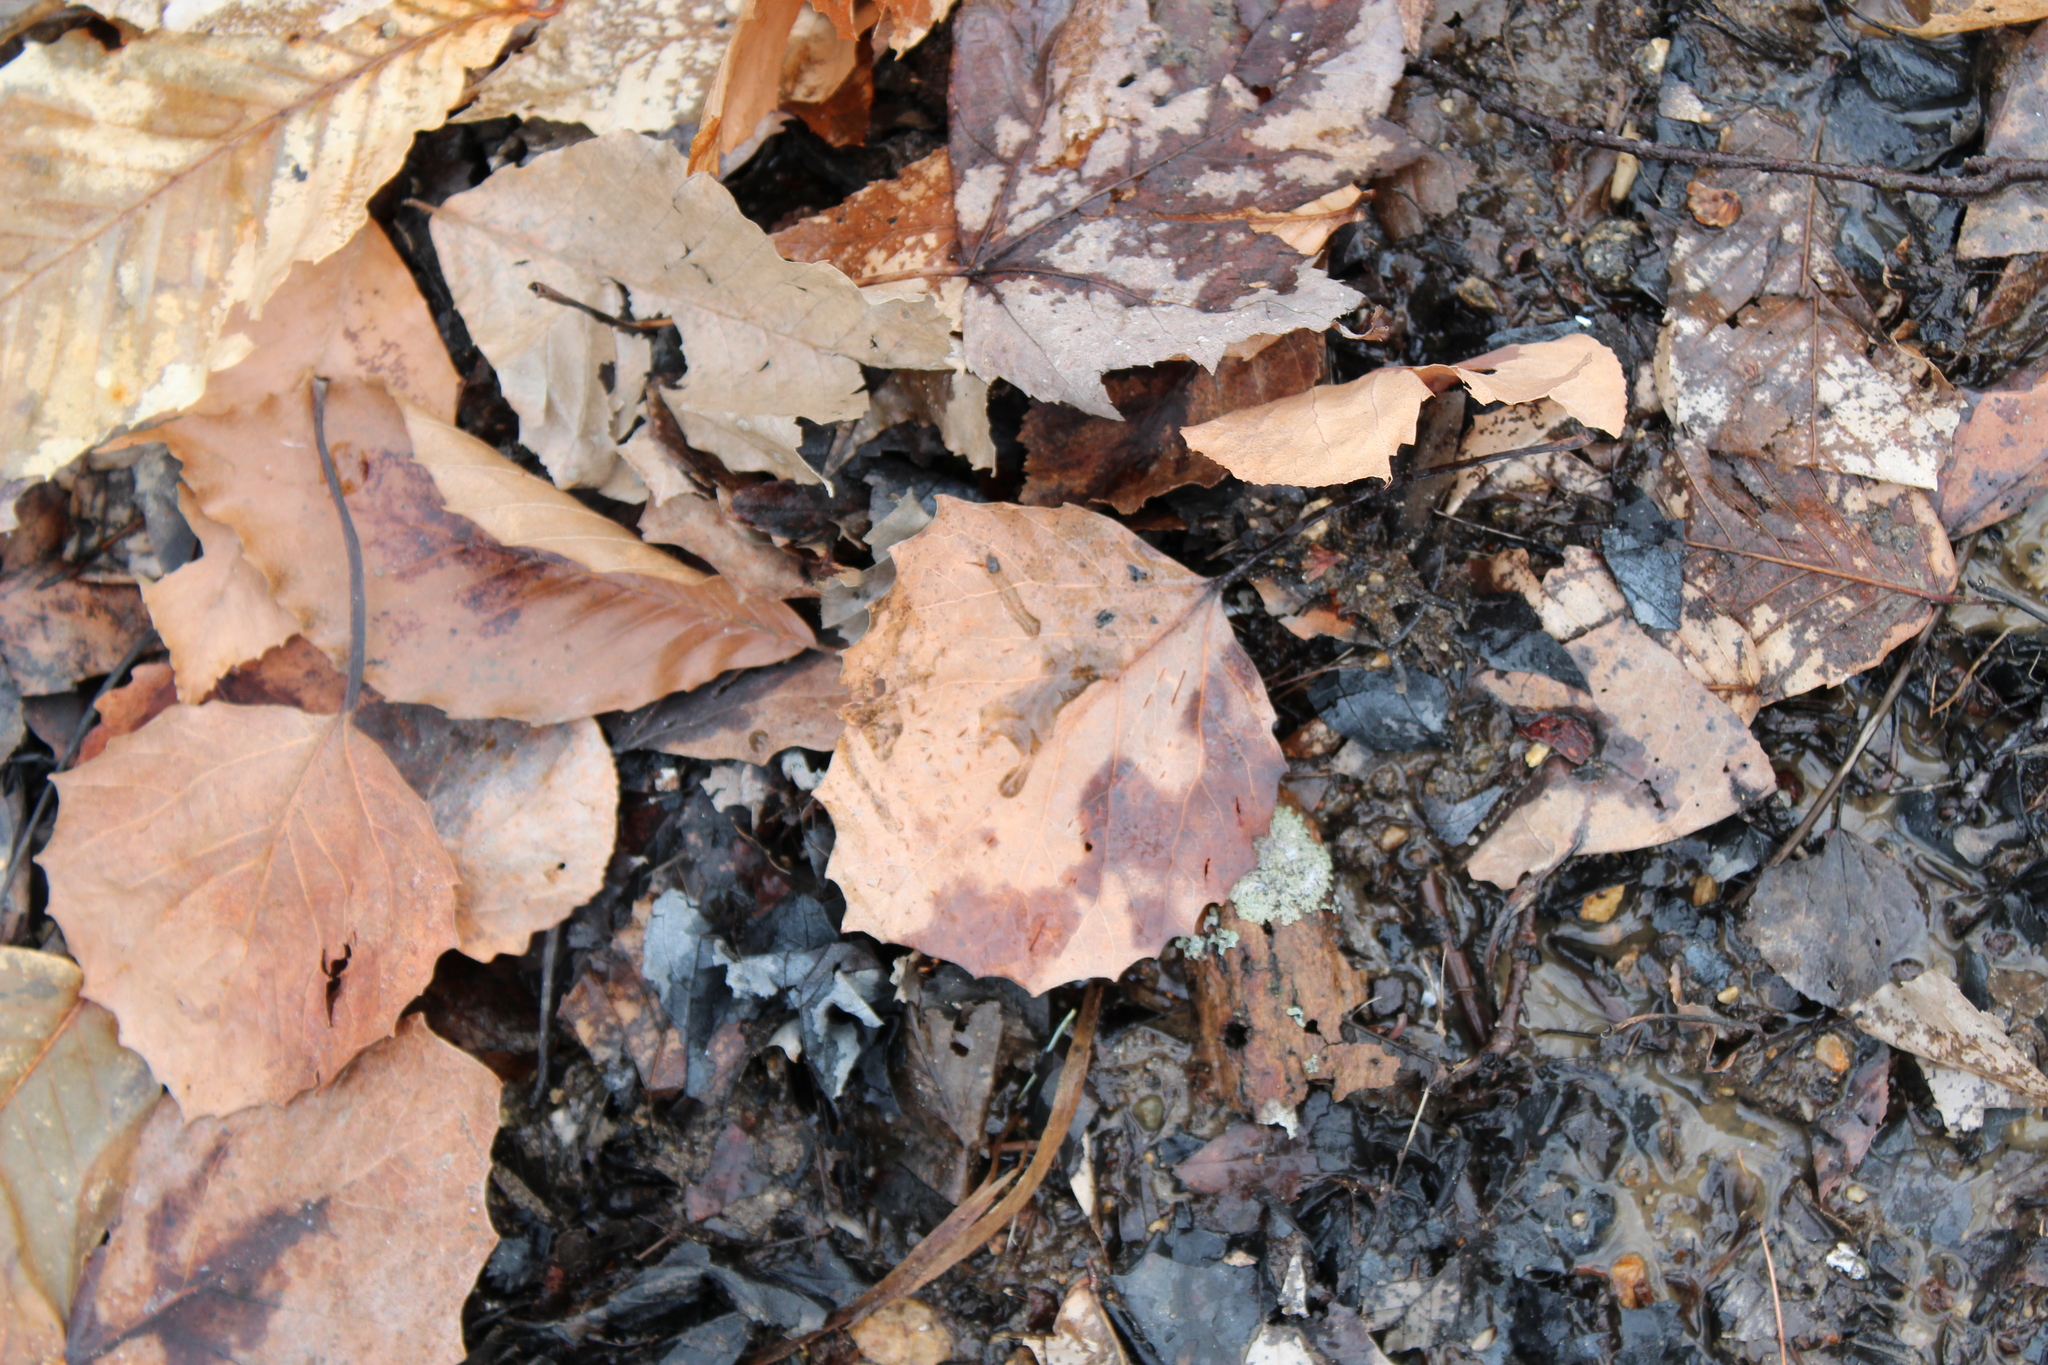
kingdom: Plantae
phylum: Tracheophyta
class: Magnoliopsida
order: Malpighiales
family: Salicaceae
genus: Populus
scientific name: Populus grandidentata
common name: Bigtooth aspen
